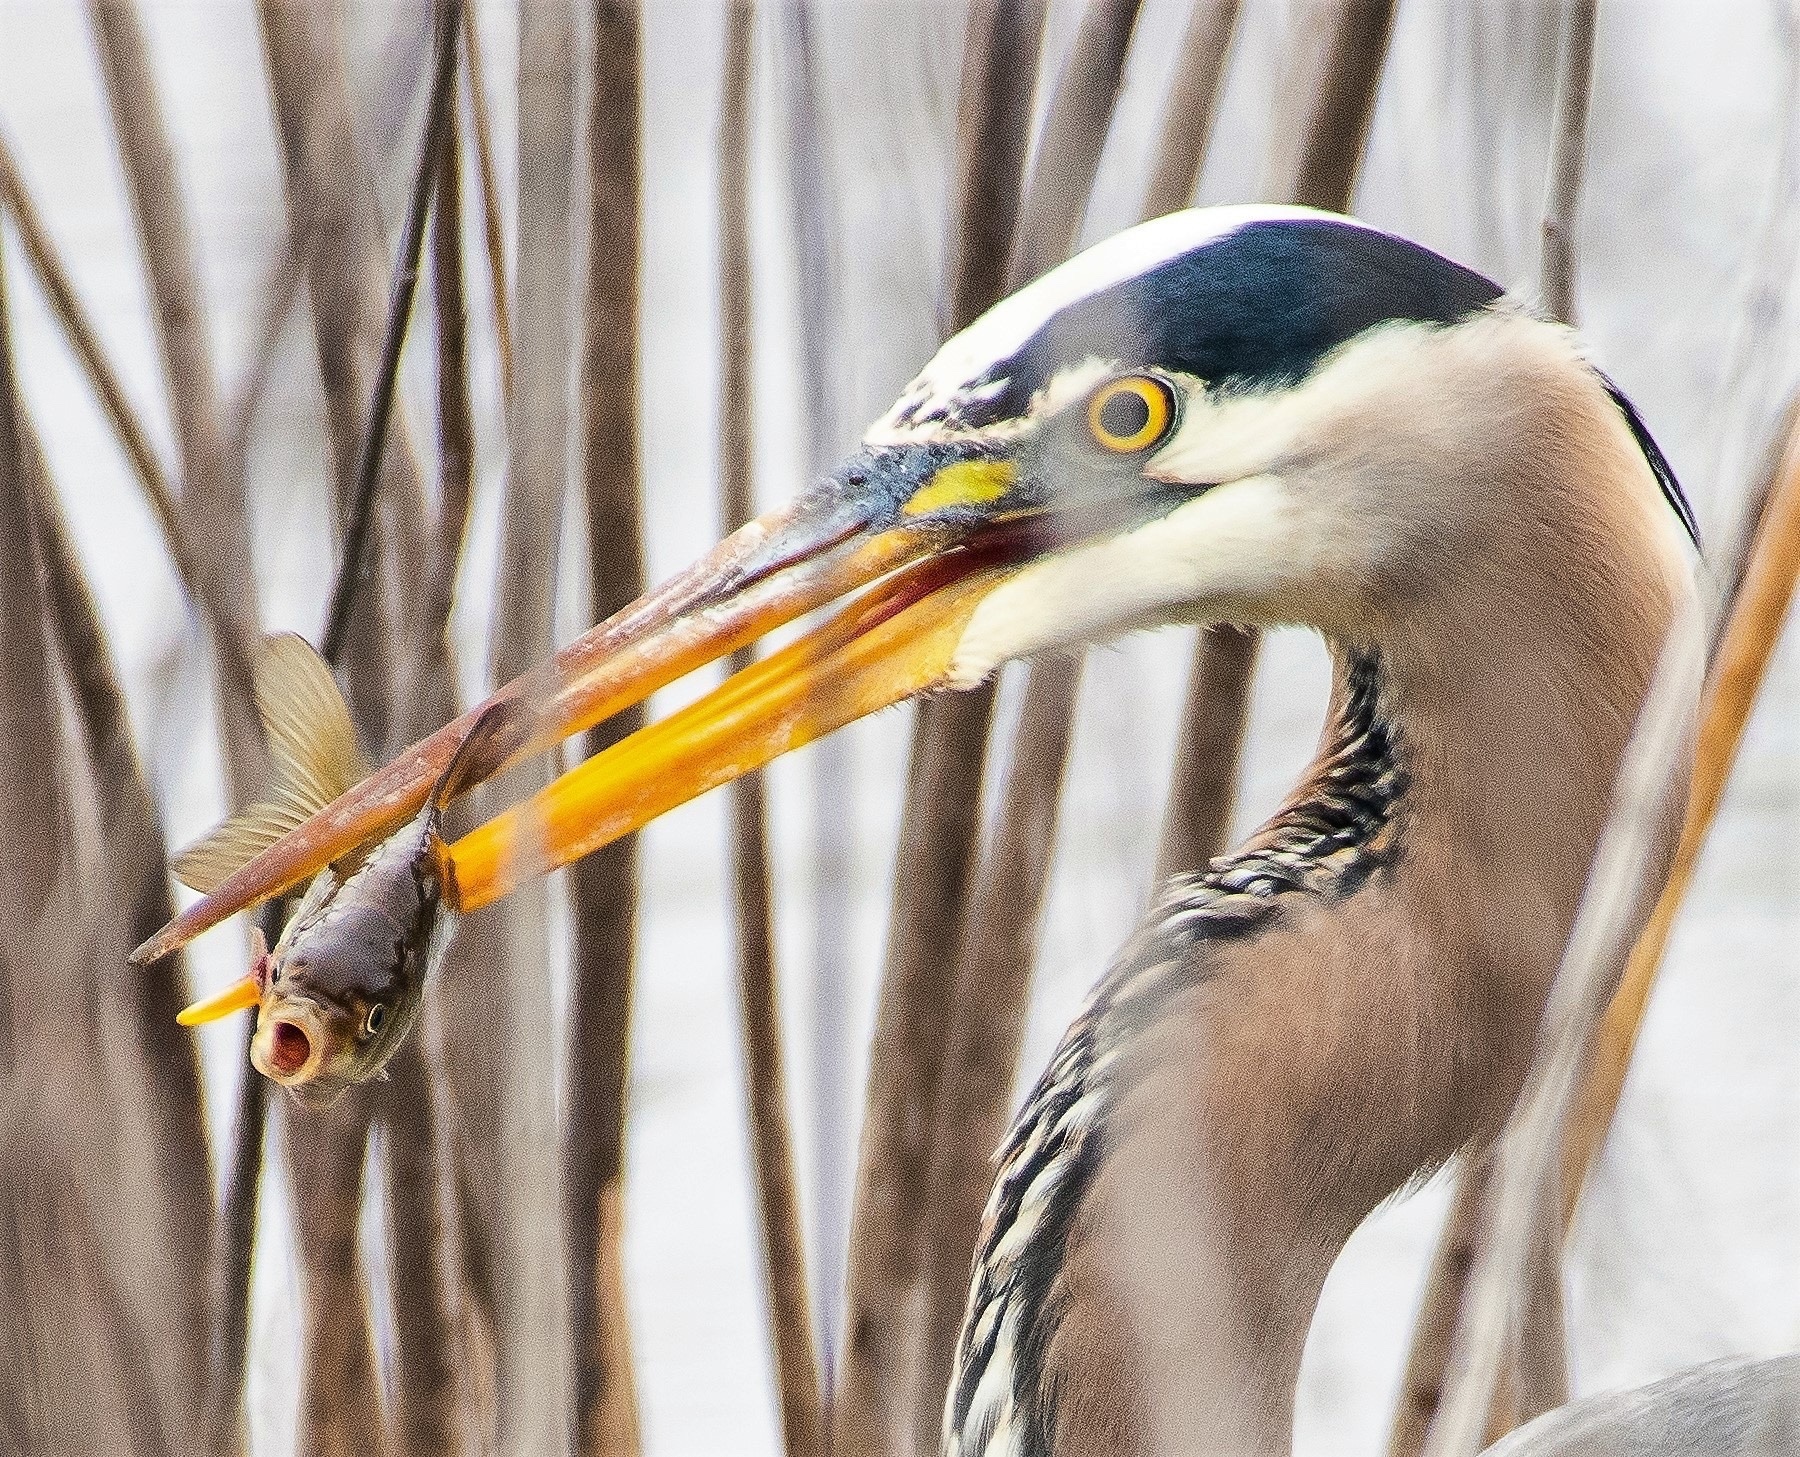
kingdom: Animalia
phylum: Chordata
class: Aves
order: Pelecaniformes
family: Ardeidae
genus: Ardea
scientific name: Ardea herodias
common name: Great blue heron
